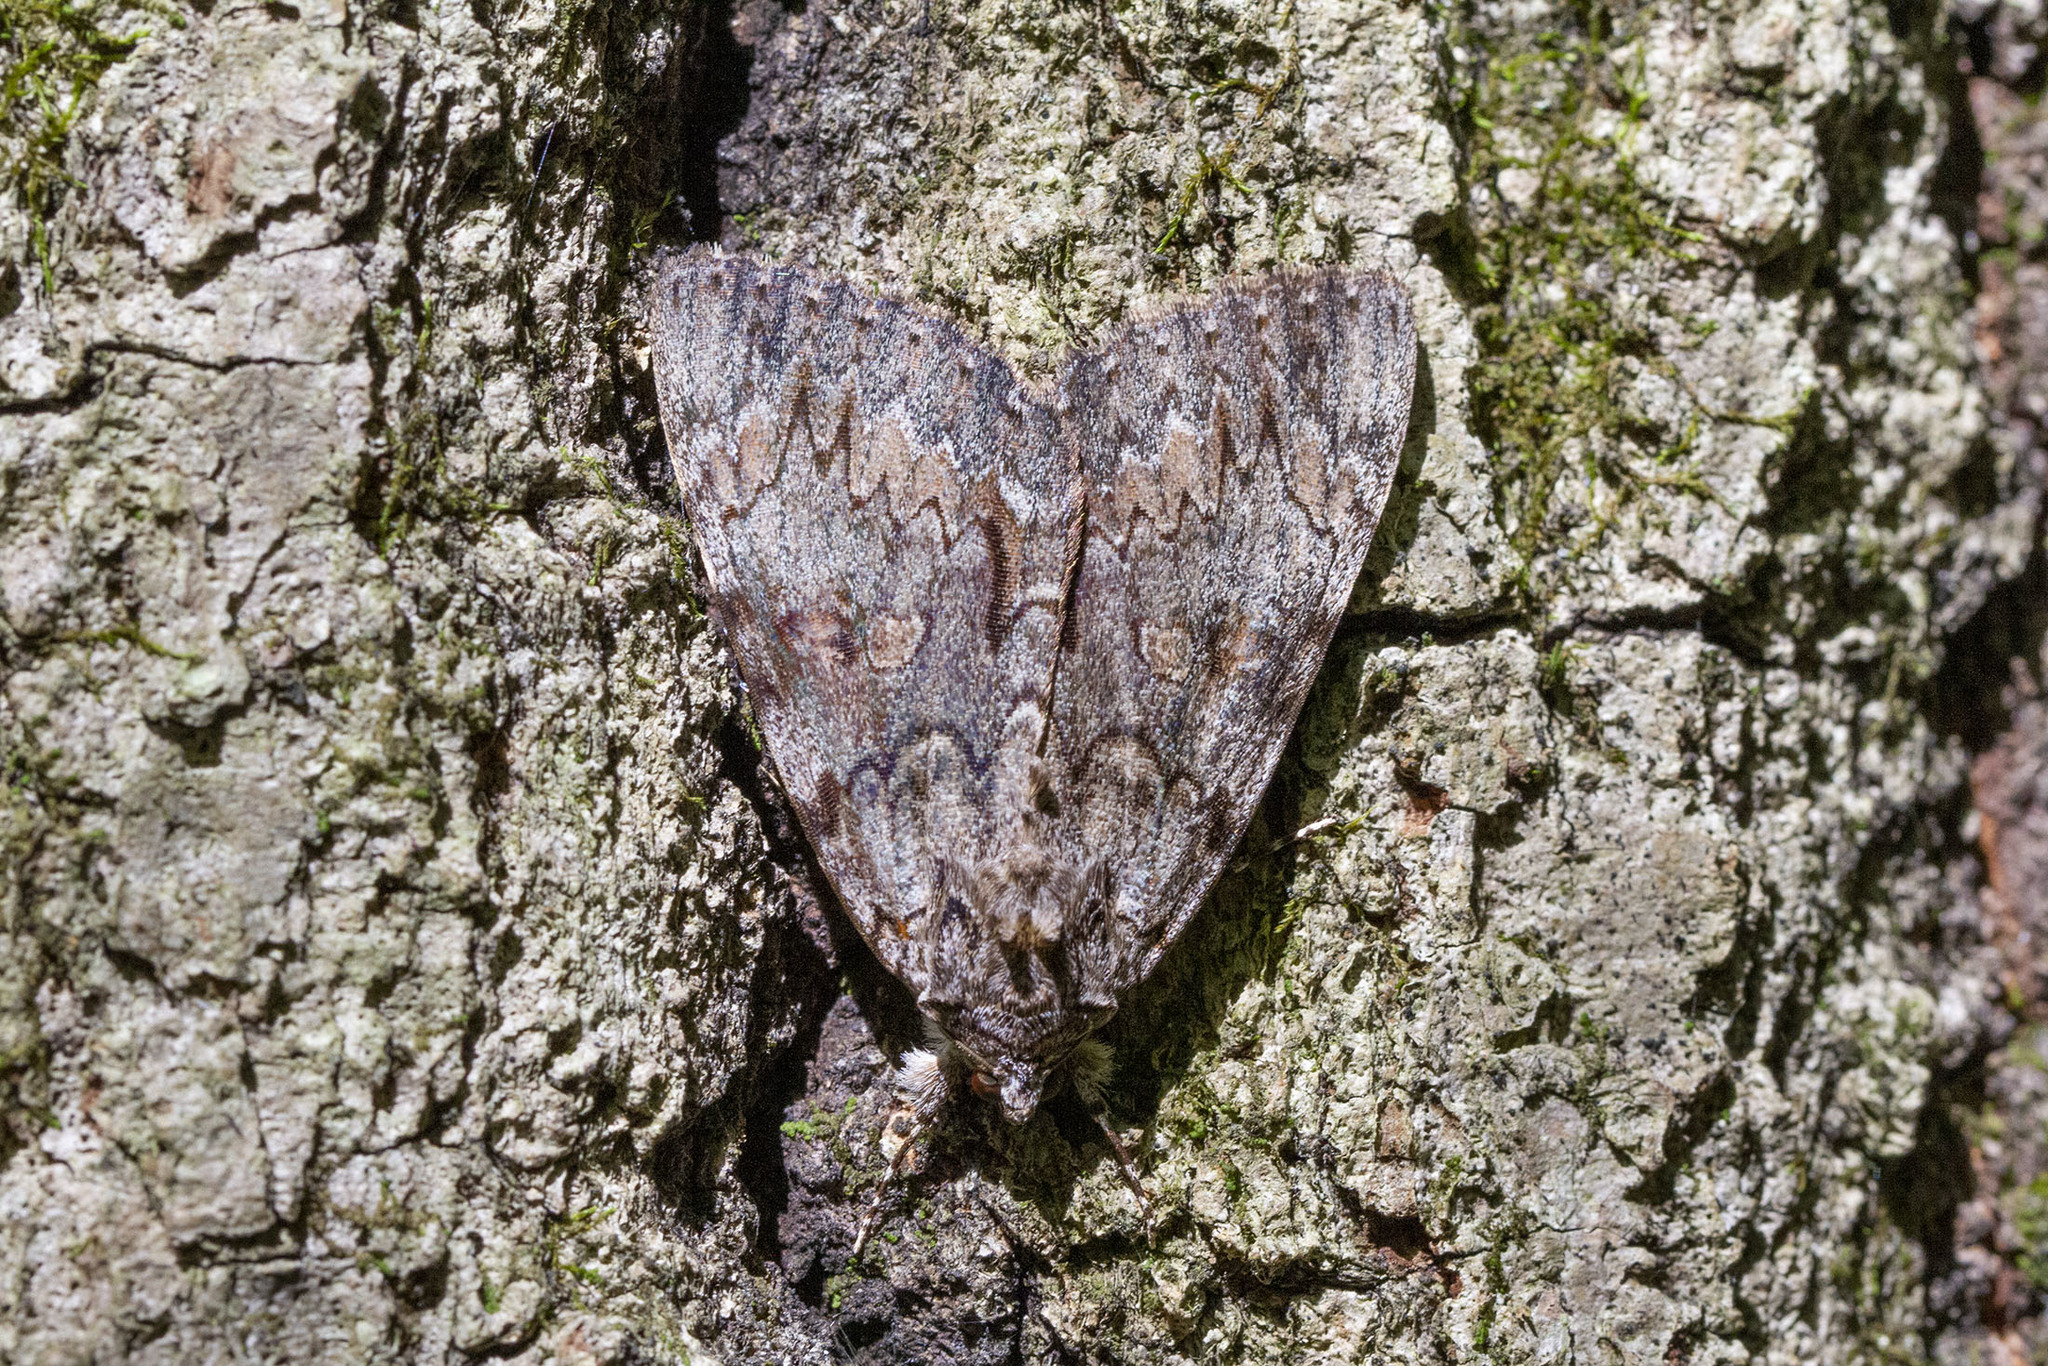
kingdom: Animalia
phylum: Arthropoda
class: Insecta
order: Lepidoptera
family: Erebidae
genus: Catocala
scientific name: Catocala palaeogama
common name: Oldwife underwing
